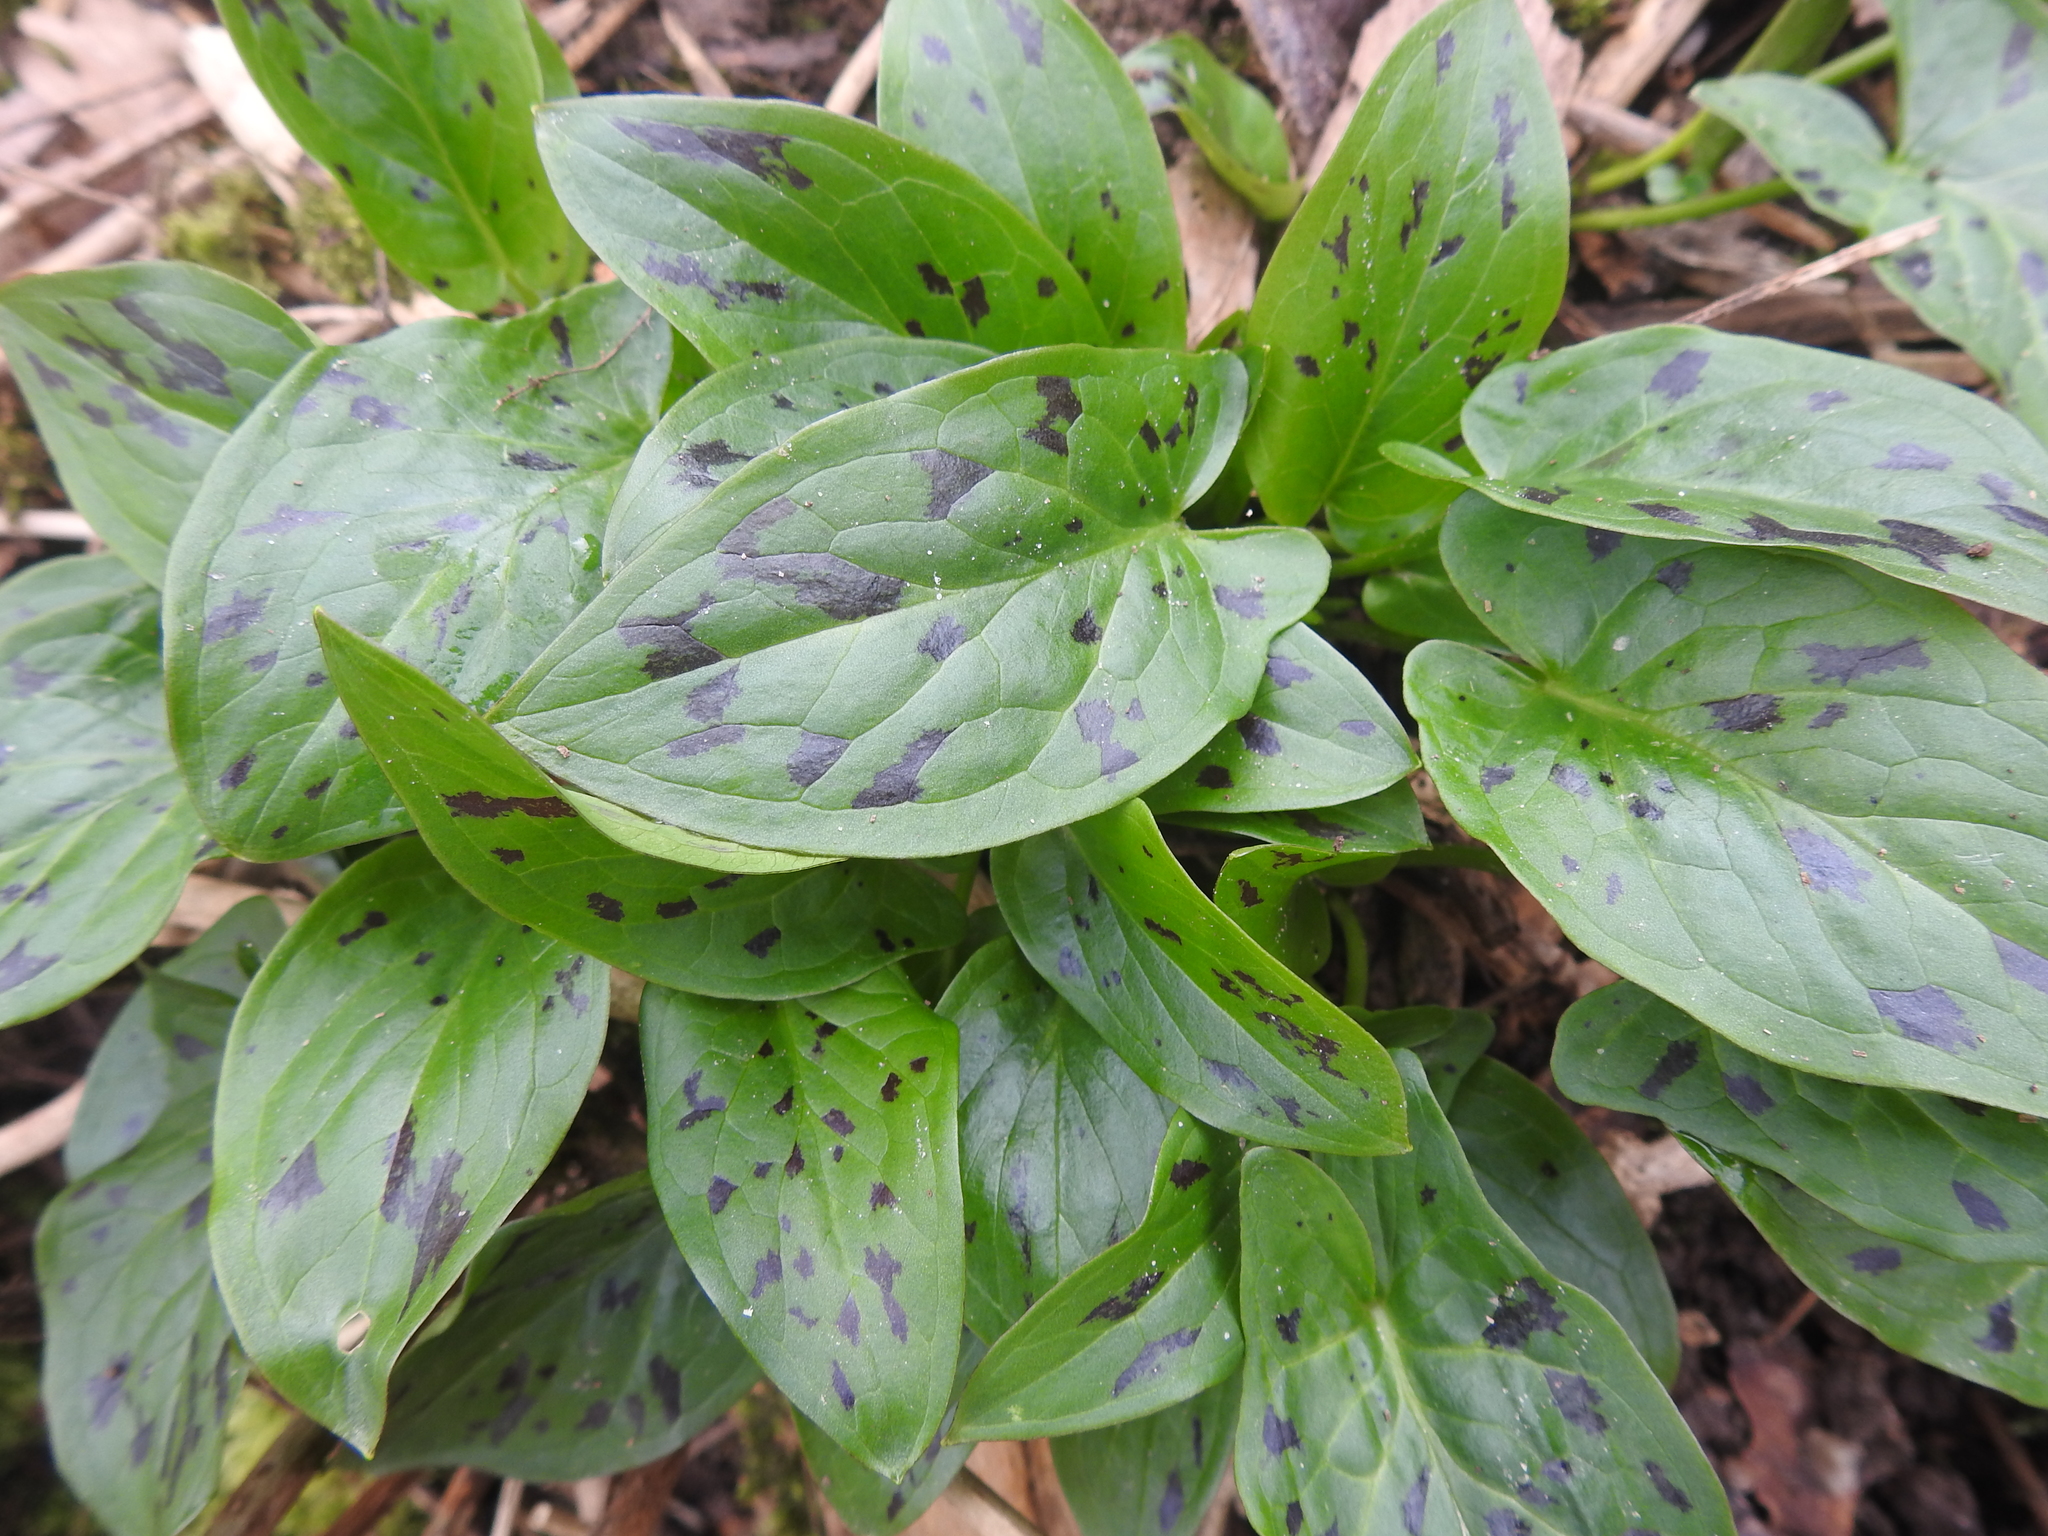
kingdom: Plantae
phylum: Tracheophyta
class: Liliopsida
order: Alismatales
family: Araceae
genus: Arum
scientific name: Arum maculatum
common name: Lords-and-ladies
